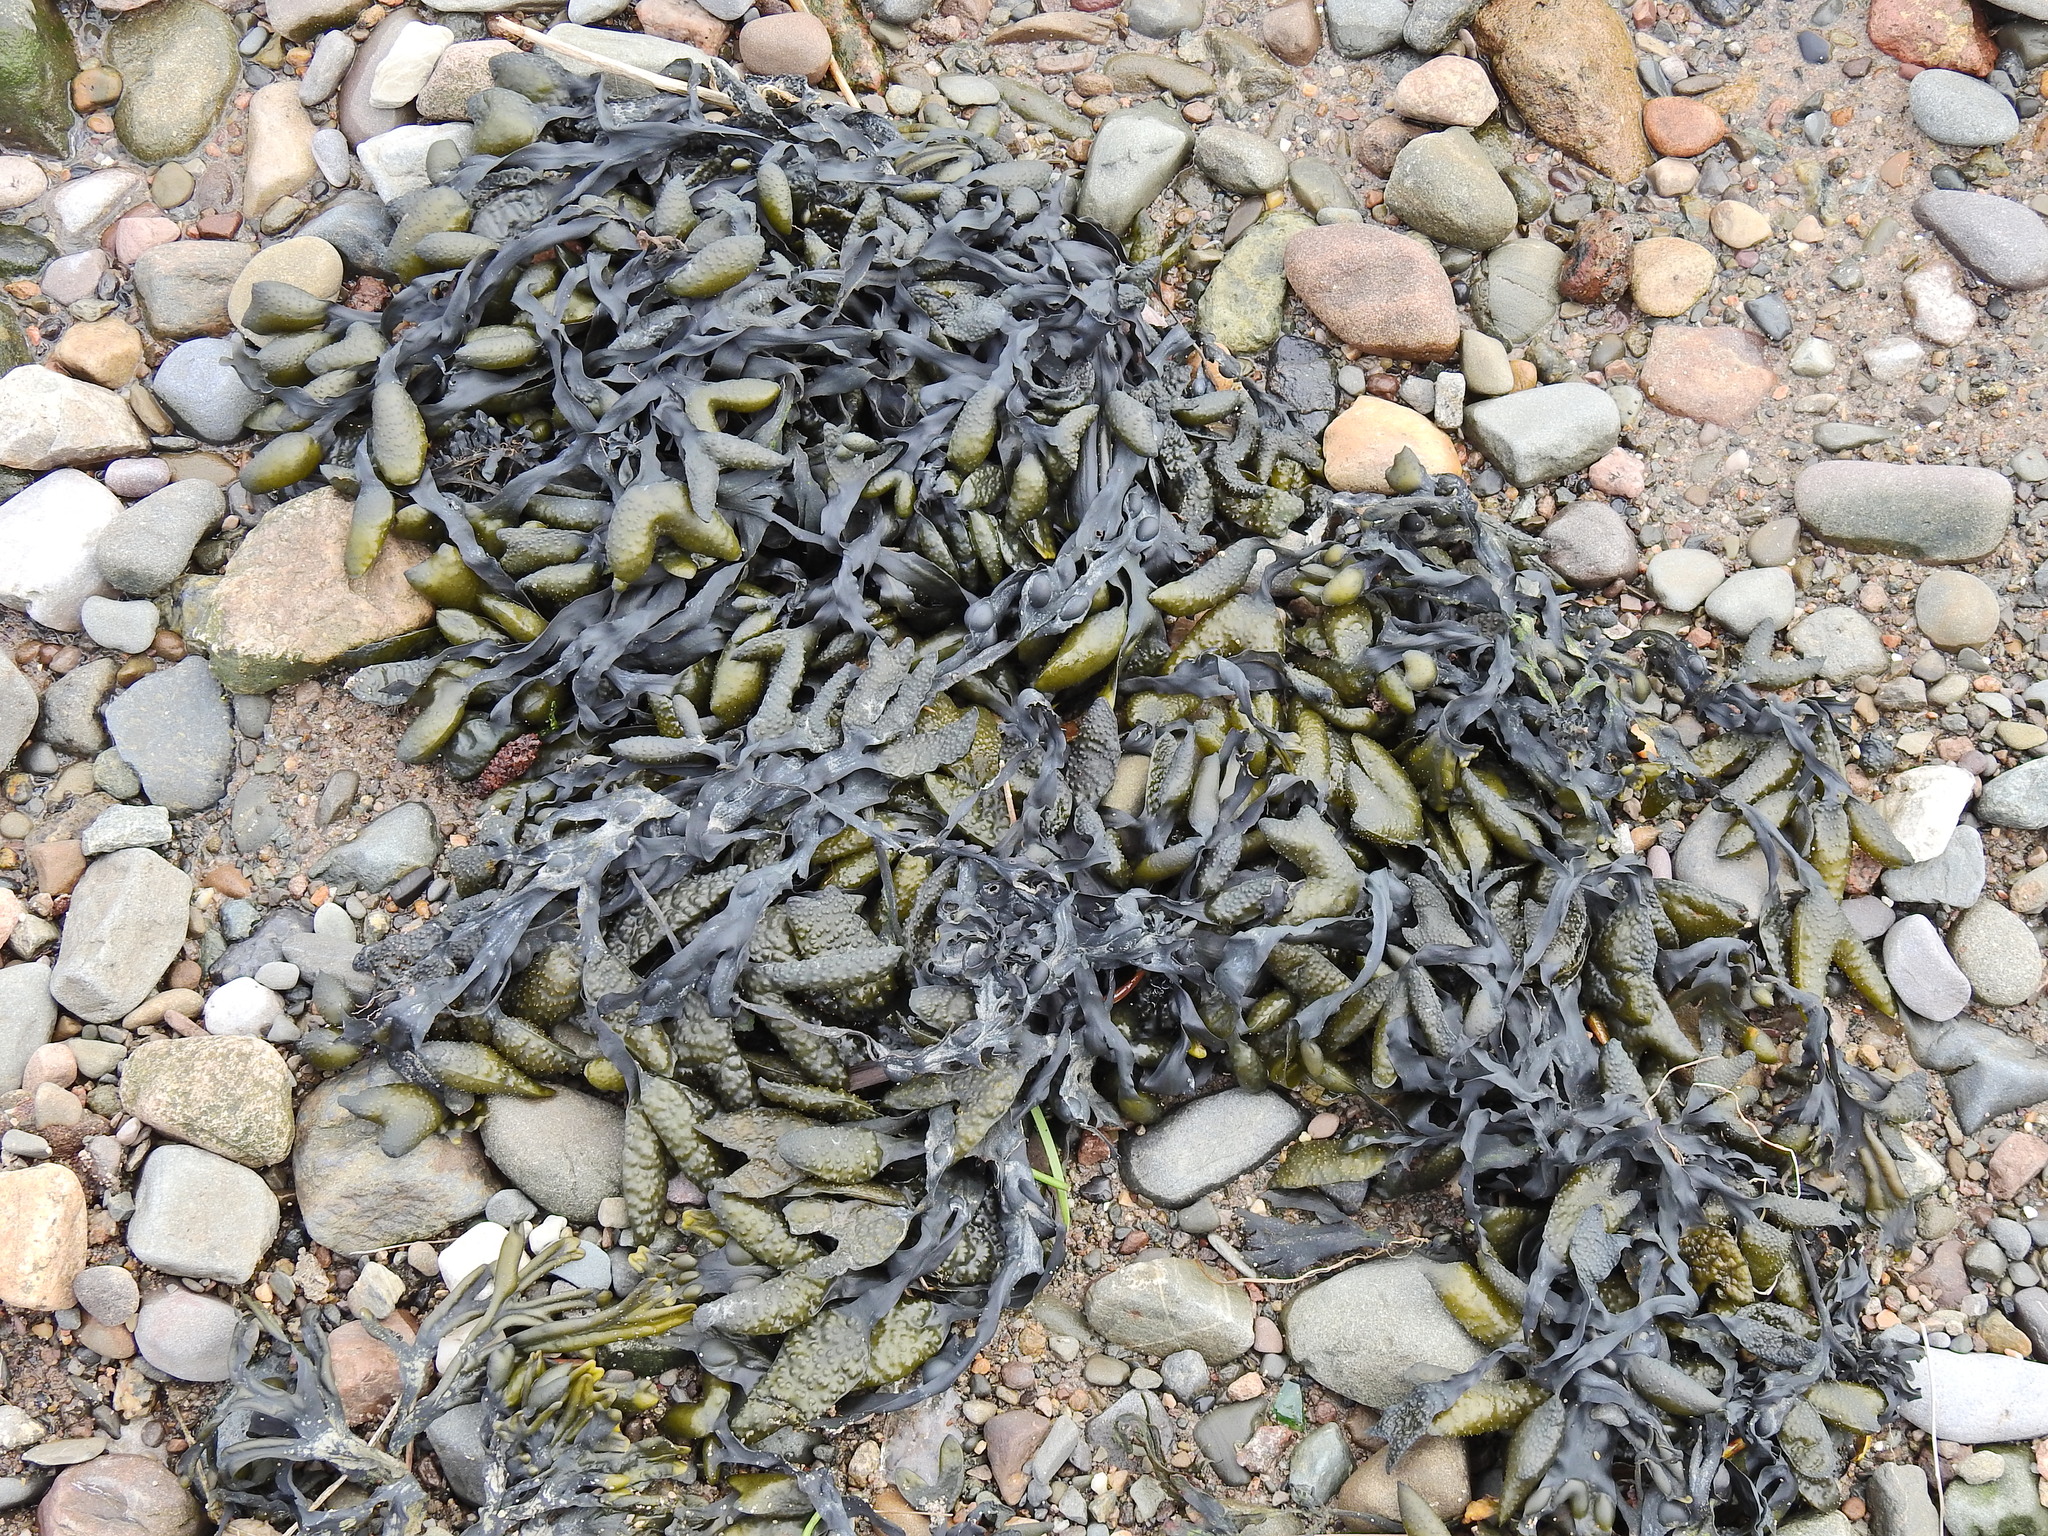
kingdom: Chromista
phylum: Ochrophyta
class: Phaeophyceae
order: Fucales
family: Fucaceae
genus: Fucus
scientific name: Fucus vesiculosus
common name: Bladder wrack
